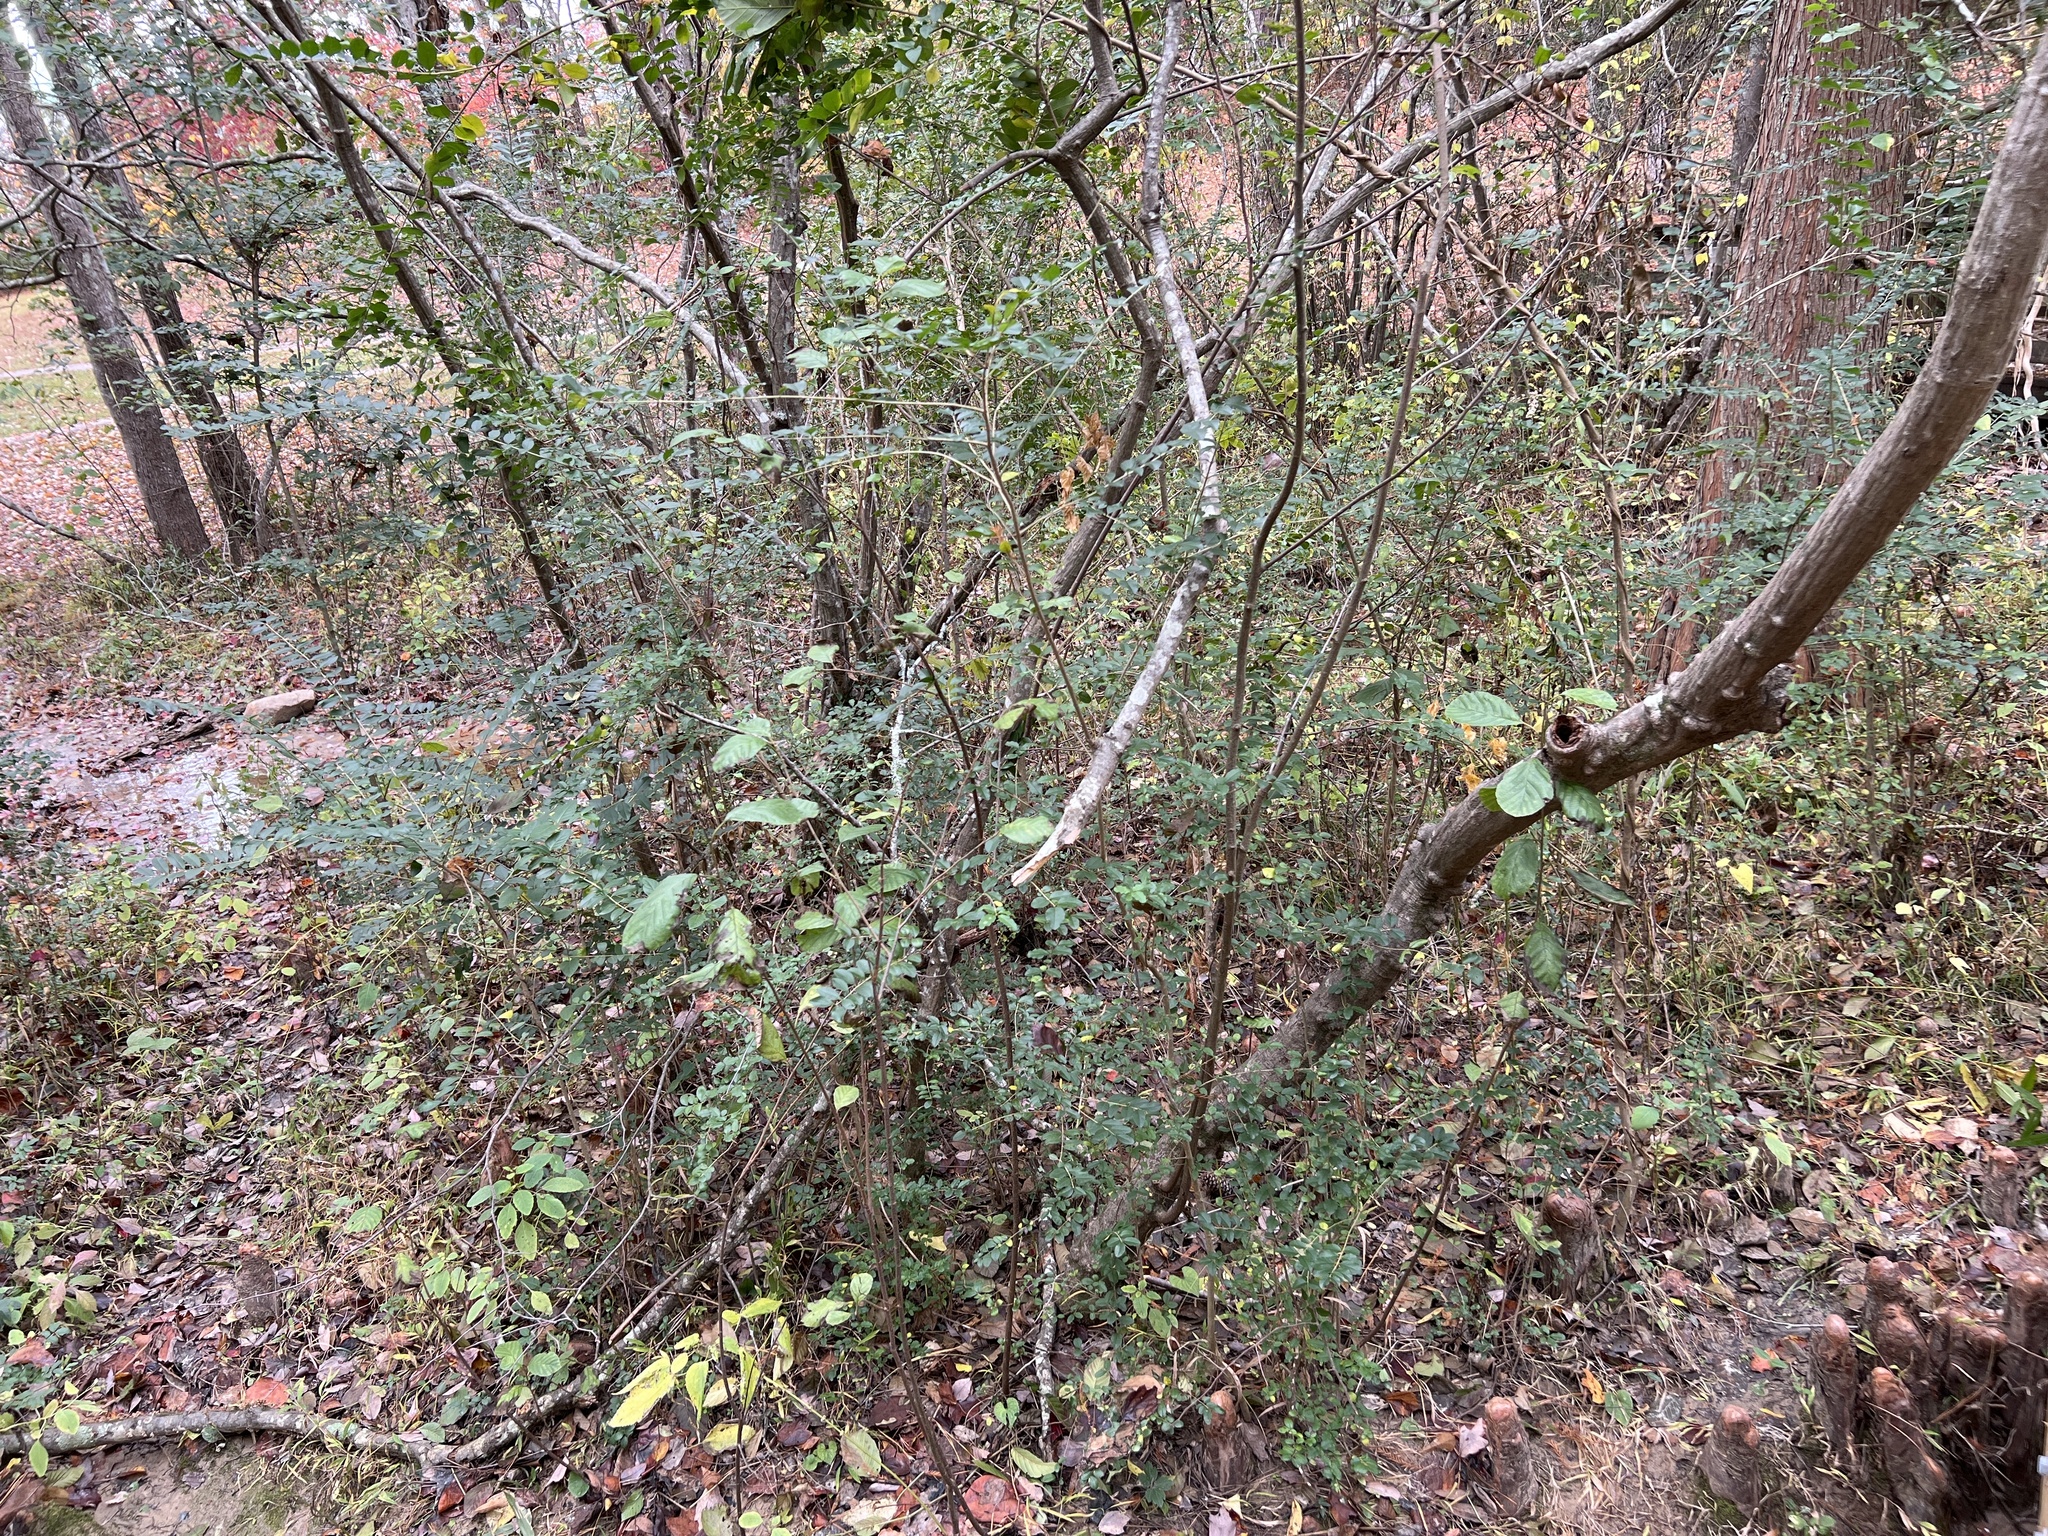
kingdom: Plantae
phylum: Tracheophyta
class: Magnoliopsida
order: Lamiales
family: Oleaceae
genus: Ligustrum
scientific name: Ligustrum sinense
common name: Chinese privet
